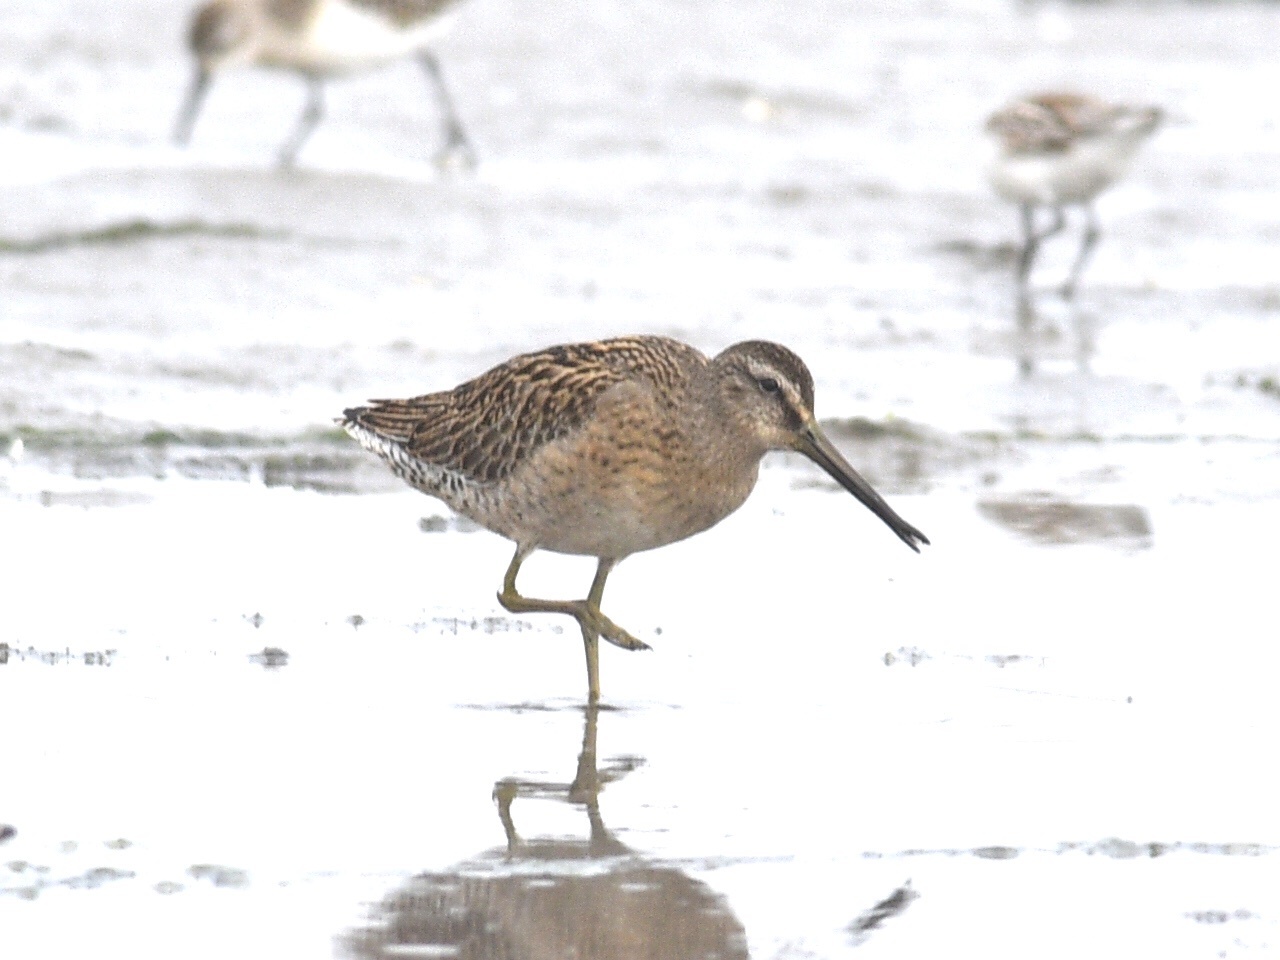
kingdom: Animalia
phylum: Chordata
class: Aves
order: Charadriiformes
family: Scolopacidae
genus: Limnodromus
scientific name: Limnodromus griseus
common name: Short-billed dowitcher
